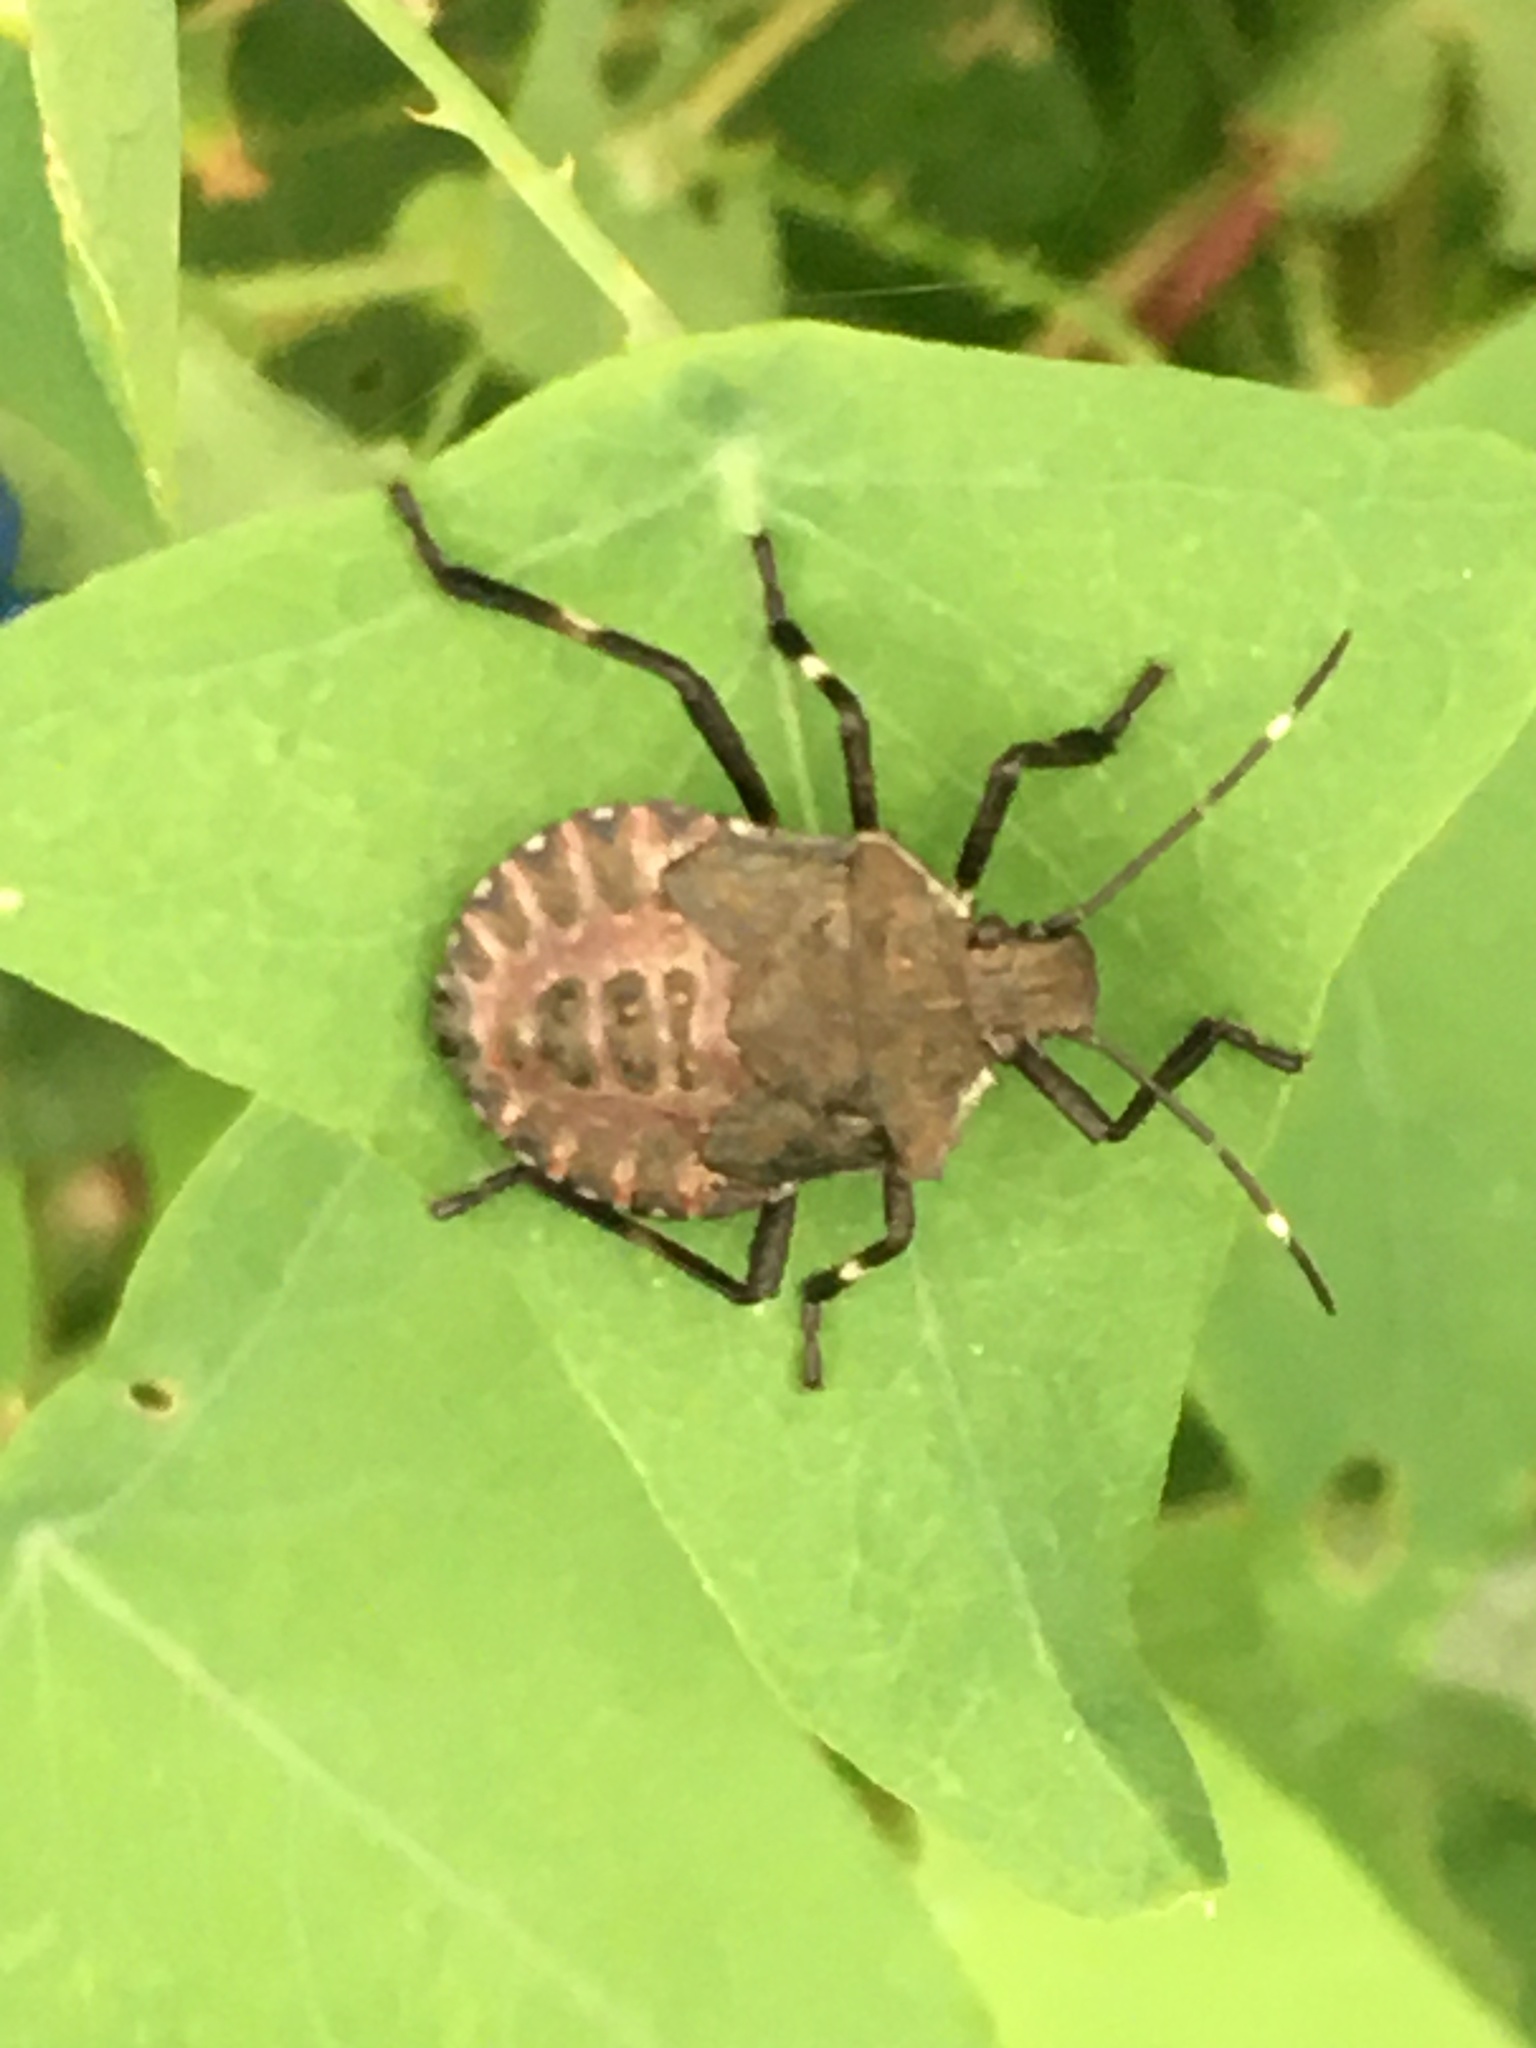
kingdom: Animalia
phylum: Arthropoda
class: Insecta
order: Hemiptera
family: Pentatomidae
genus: Halyomorpha
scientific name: Halyomorpha halys
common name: Brown marmorated stink bug
